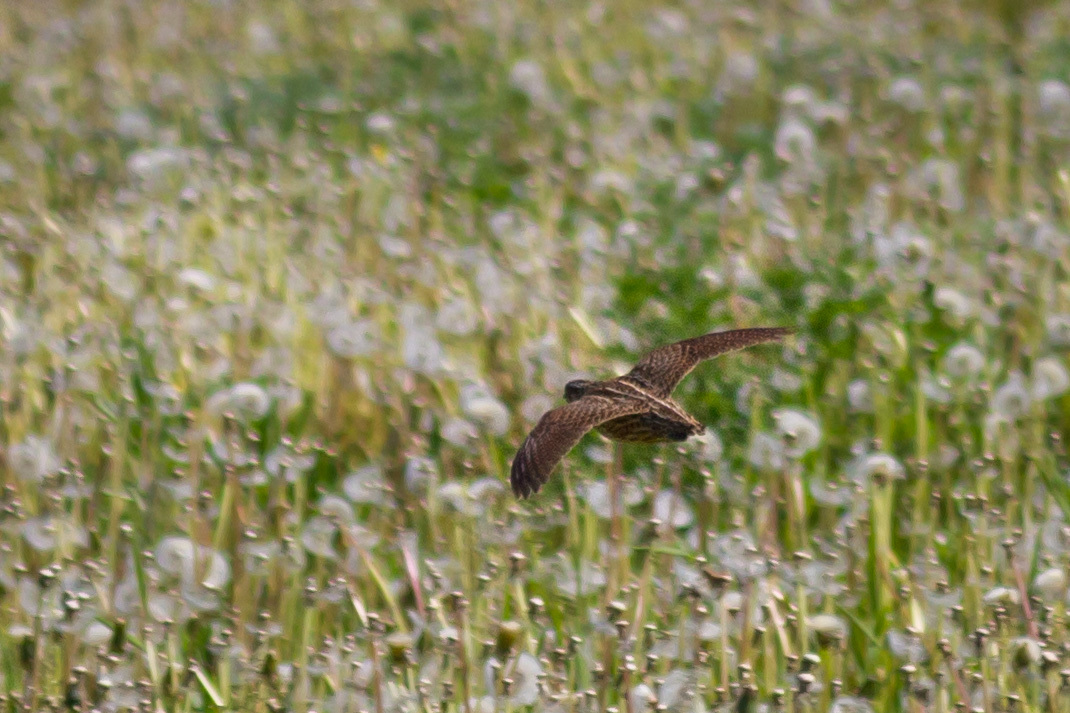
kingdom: Animalia
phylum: Chordata
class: Aves
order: Galliformes
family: Phasianidae
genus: Coturnix
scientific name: Coturnix coturnix
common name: Common quail
